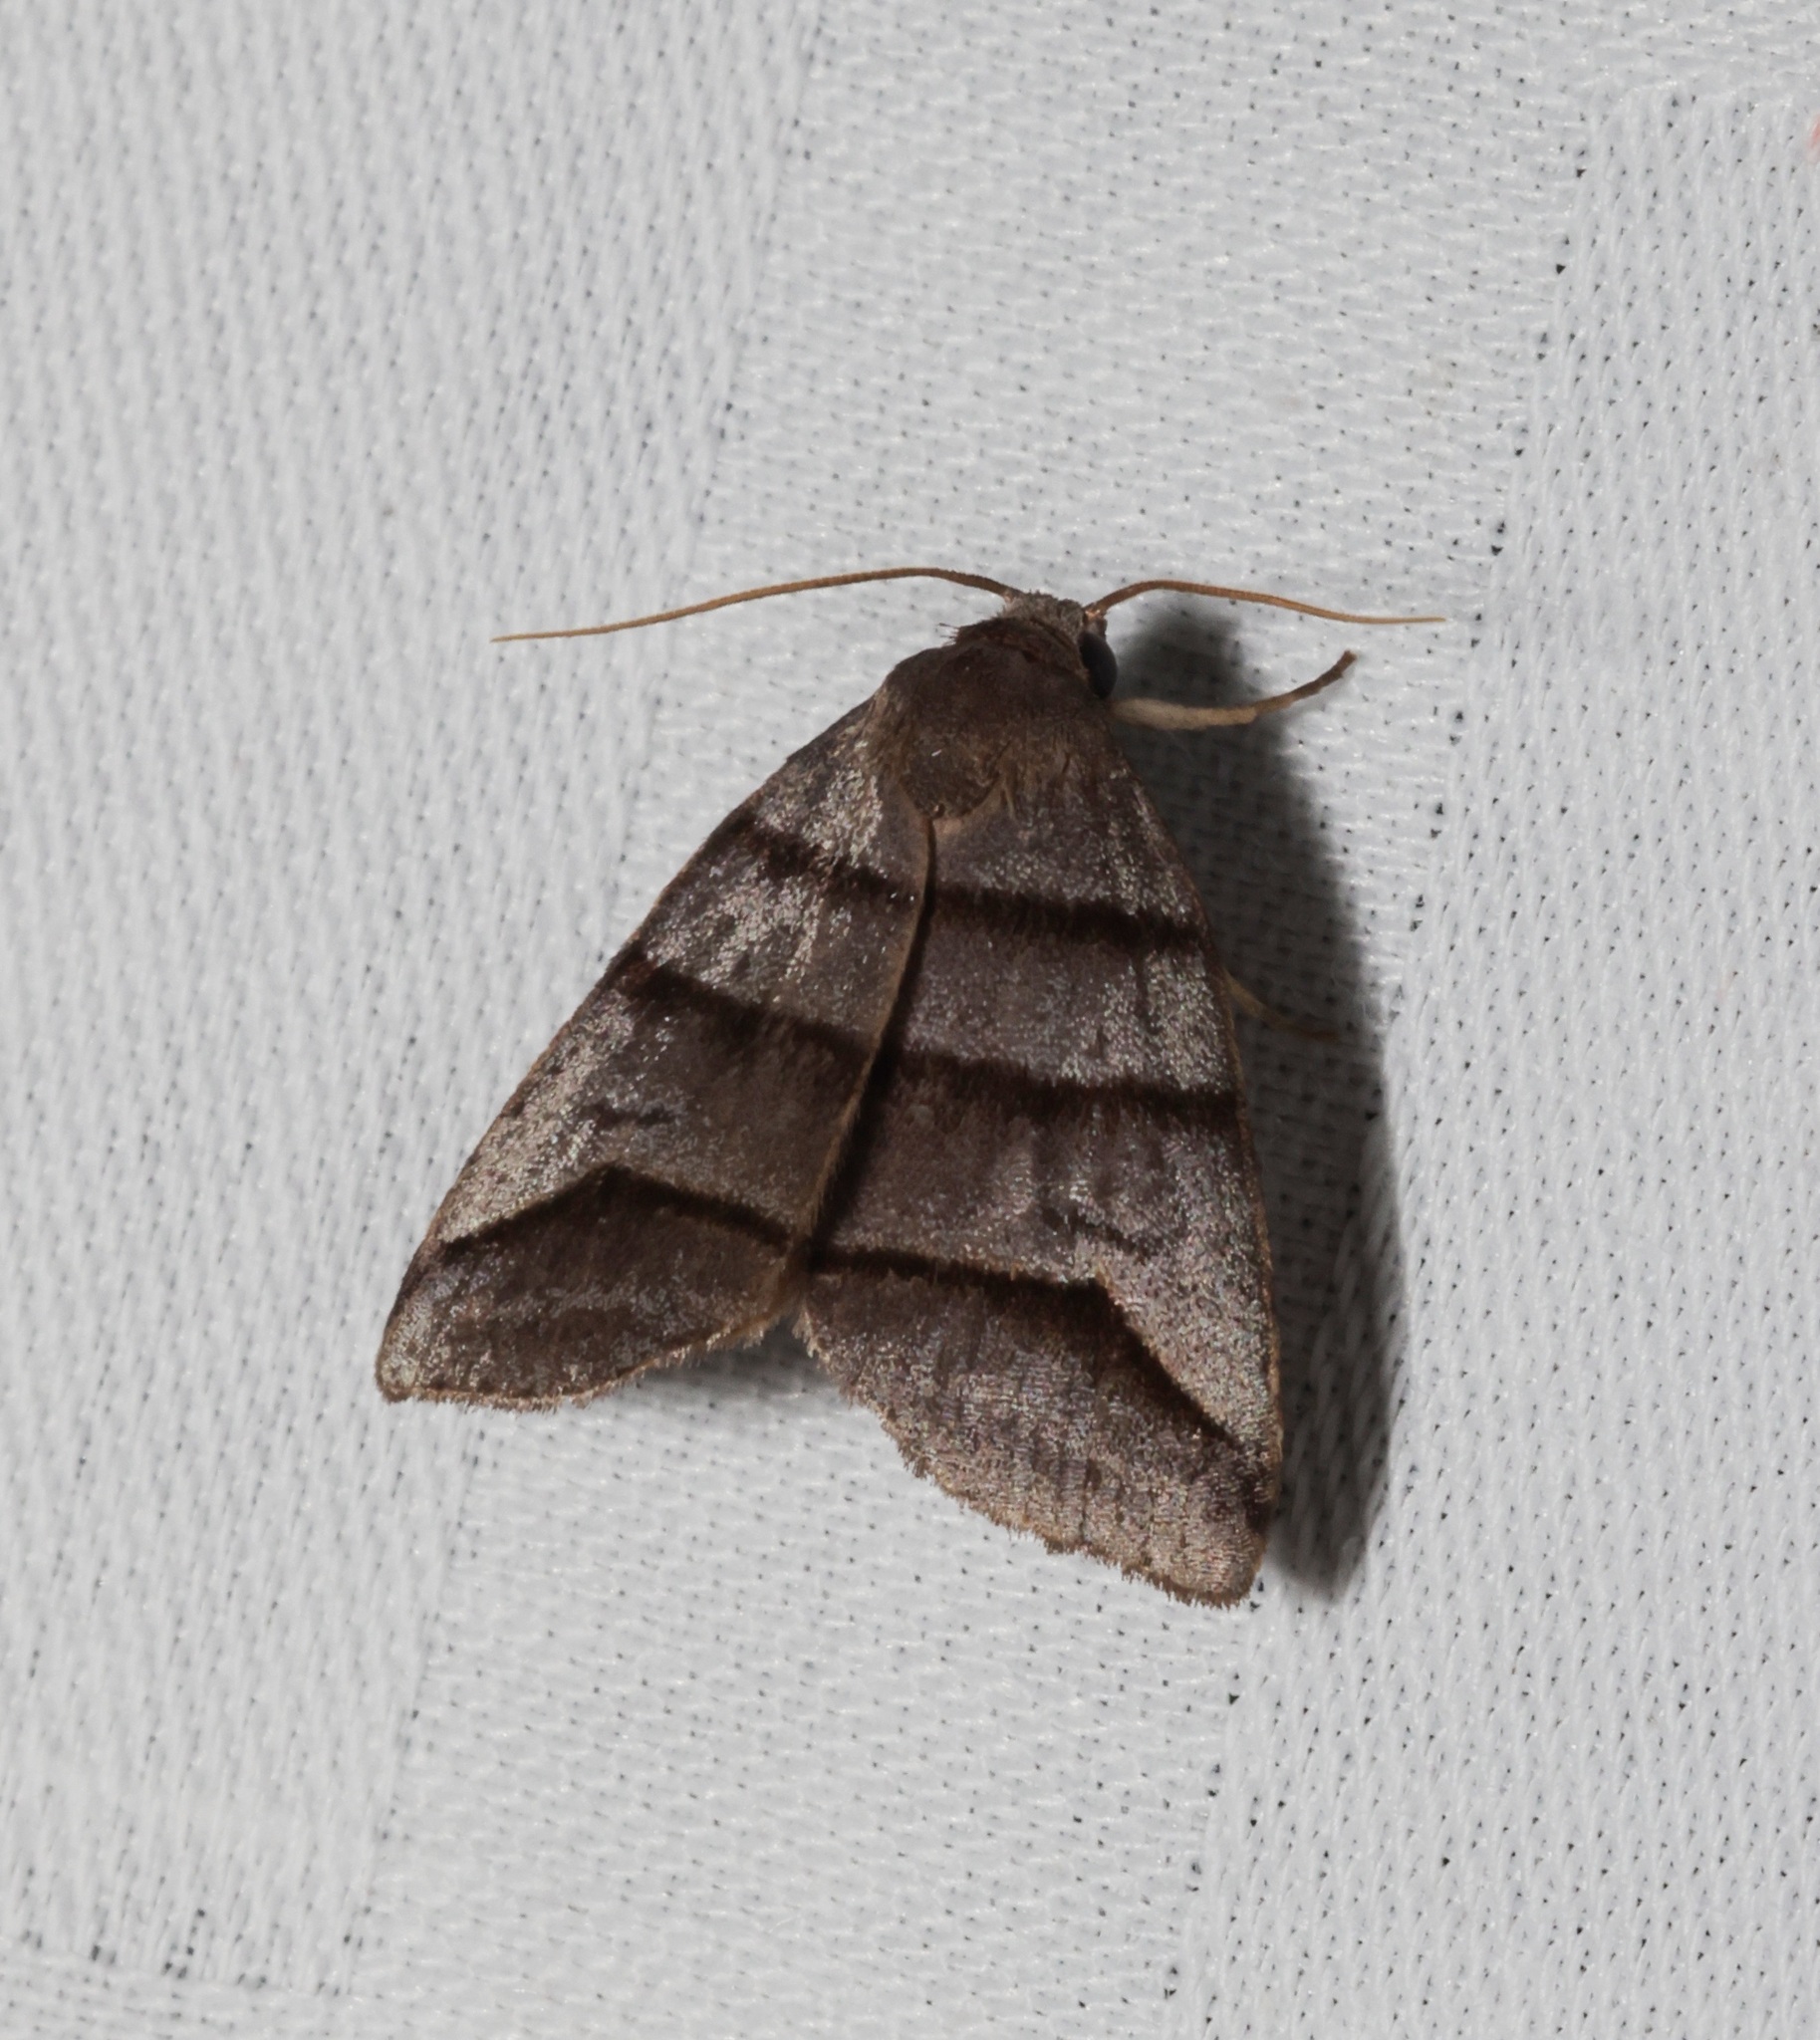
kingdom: Animalia
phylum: Arthropoda
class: Insecta
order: Lepidoptera
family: Noctuidae
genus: Flammona
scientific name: Flammona trilineata
